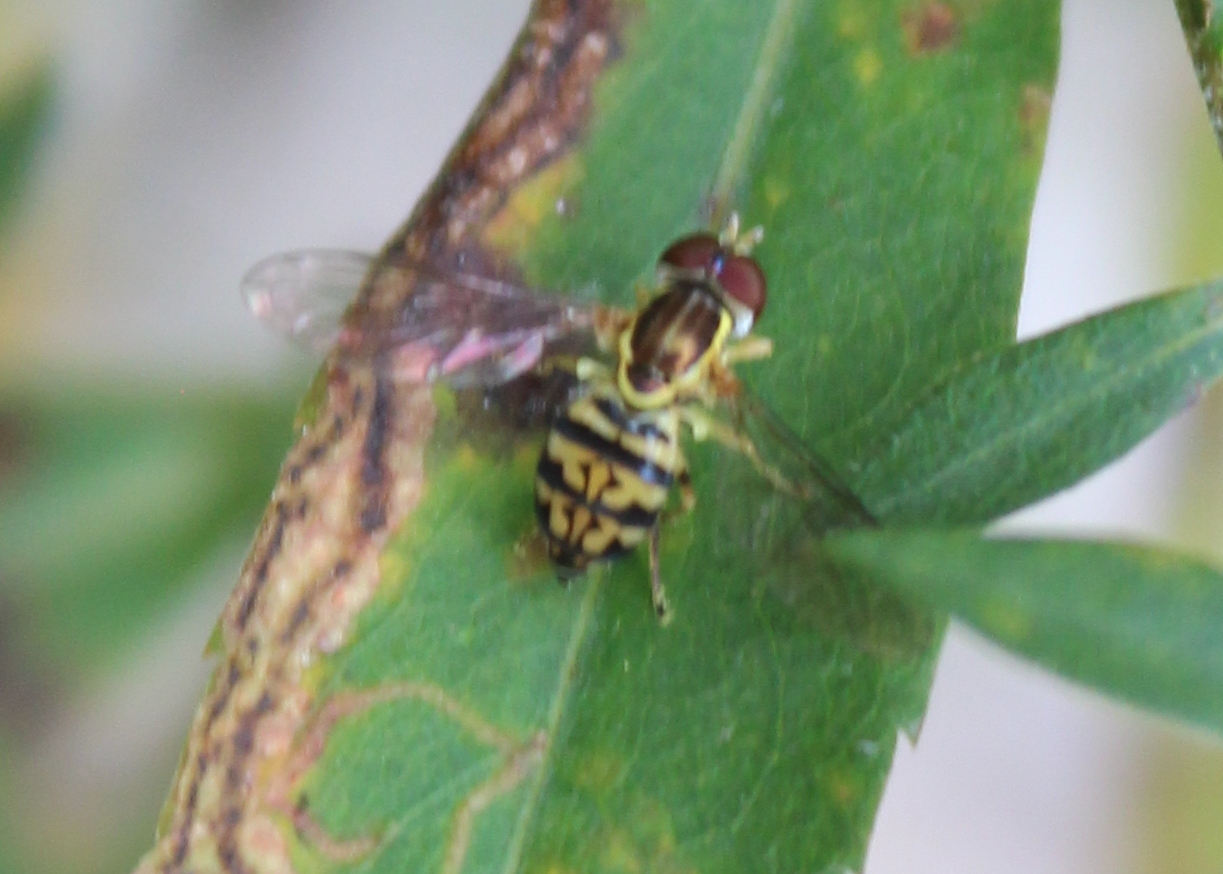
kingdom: Animalia
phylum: Arthropoda
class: Insecta
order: Diptera
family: Syrphidae
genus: Toxomerus
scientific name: Toxomerus geminatus
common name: Eastern calligrapher
